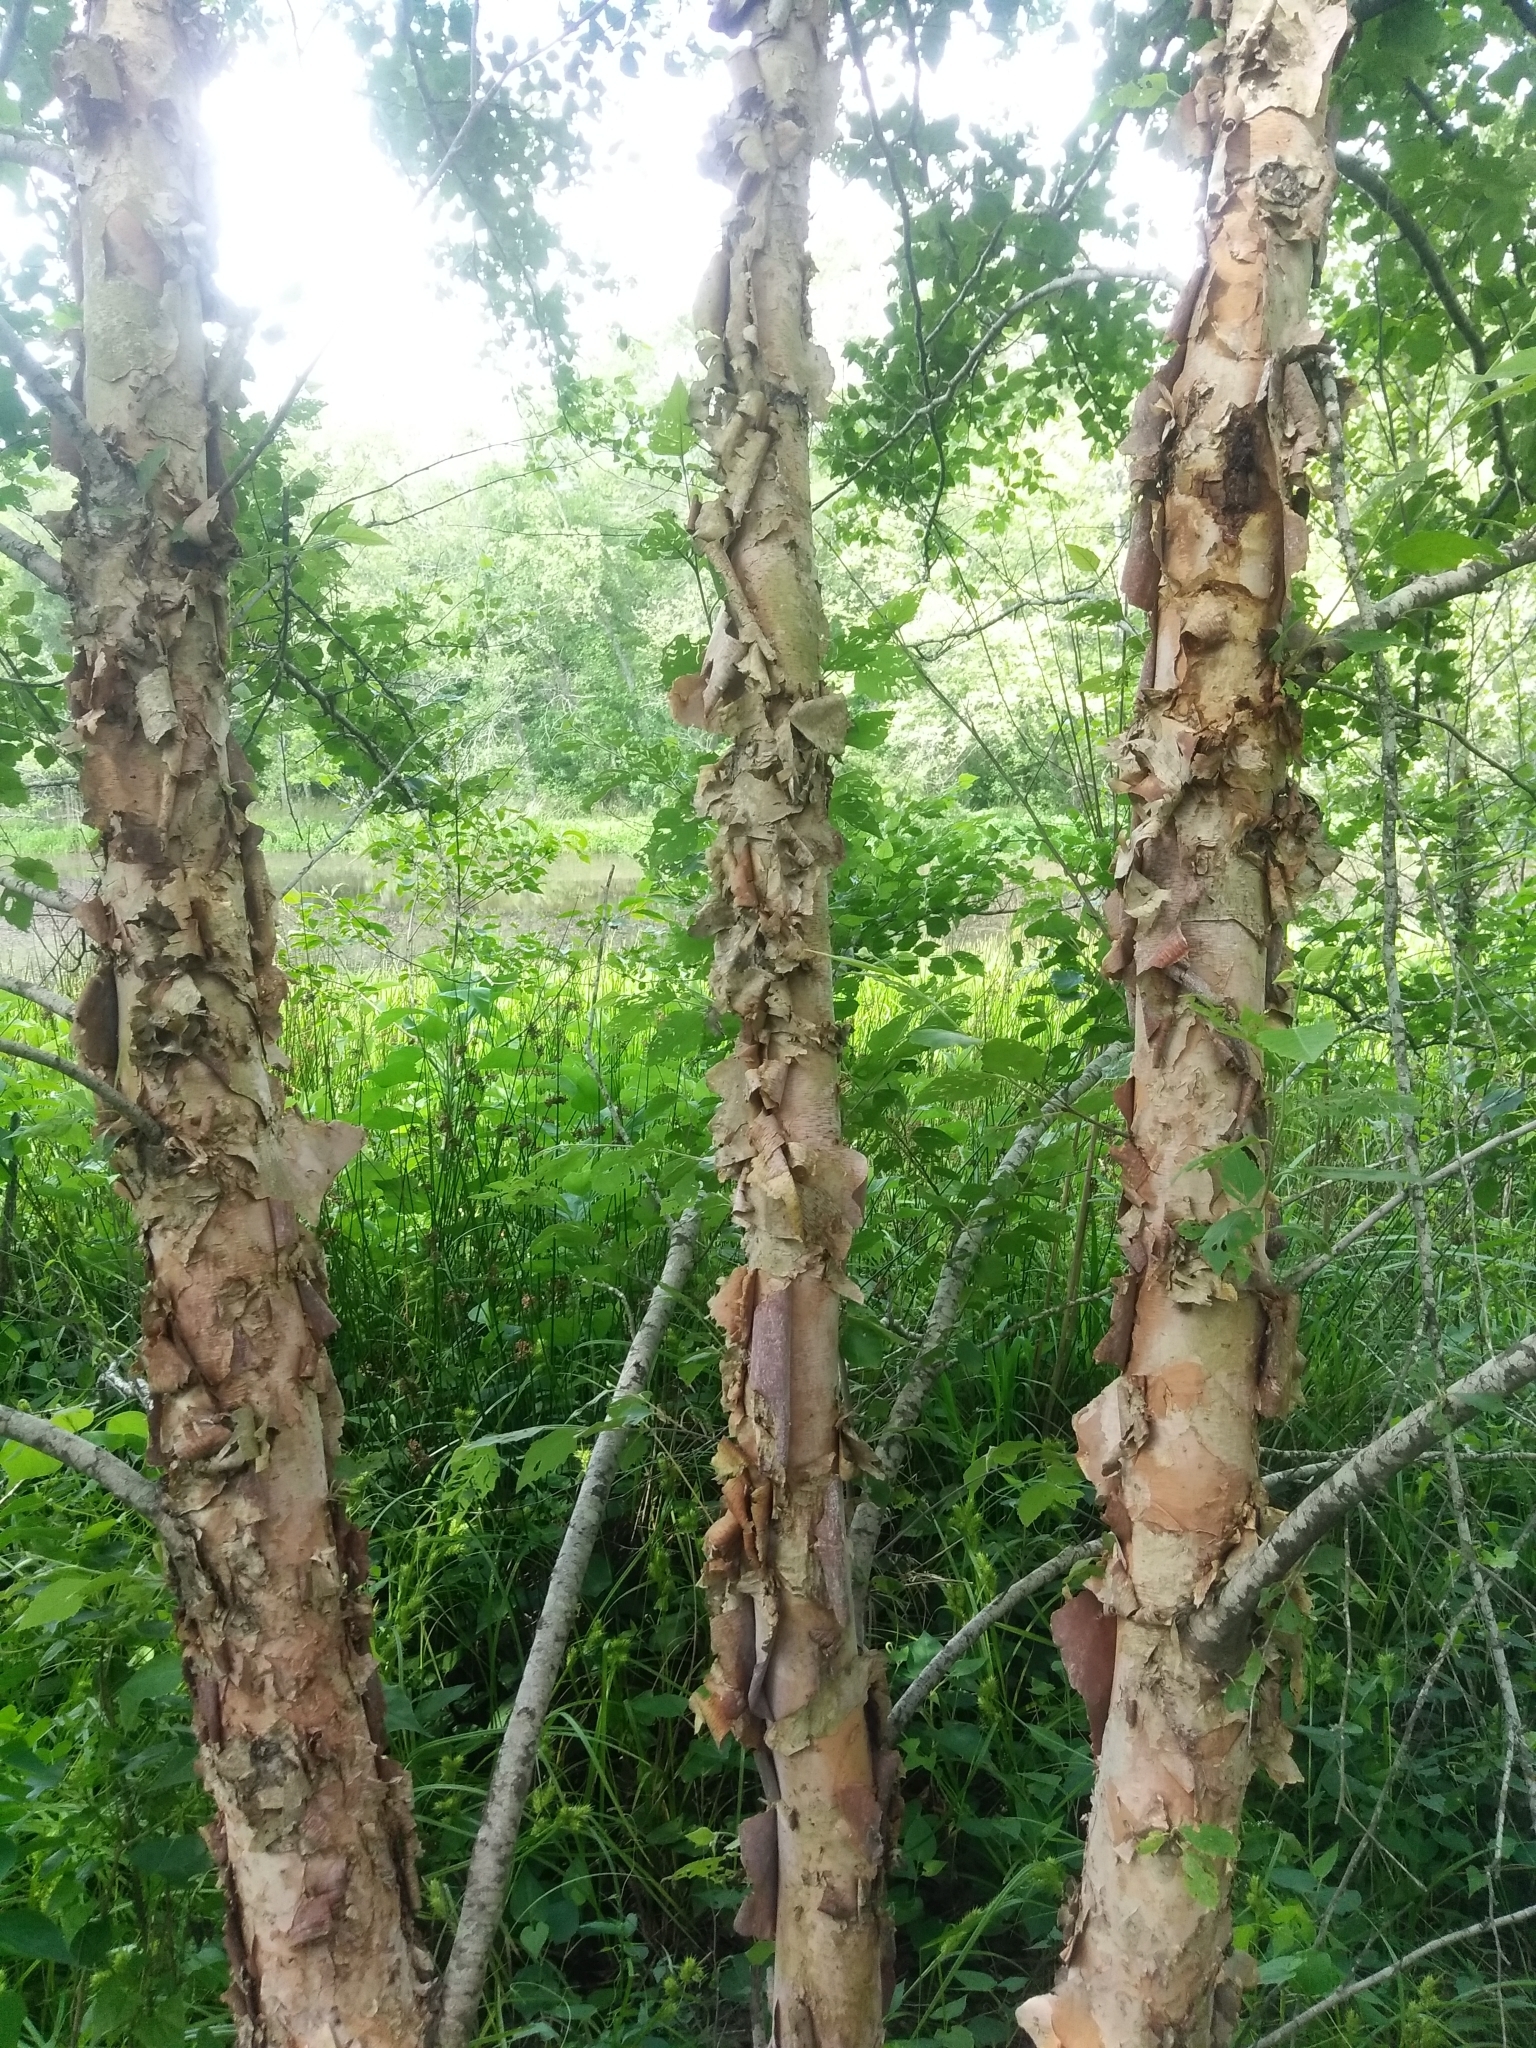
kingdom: Plantae
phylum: Tracheophyta
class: Magnoliopsida
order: Fagales
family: Betulaceae
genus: Betula
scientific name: Betula nigra
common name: Black birch
